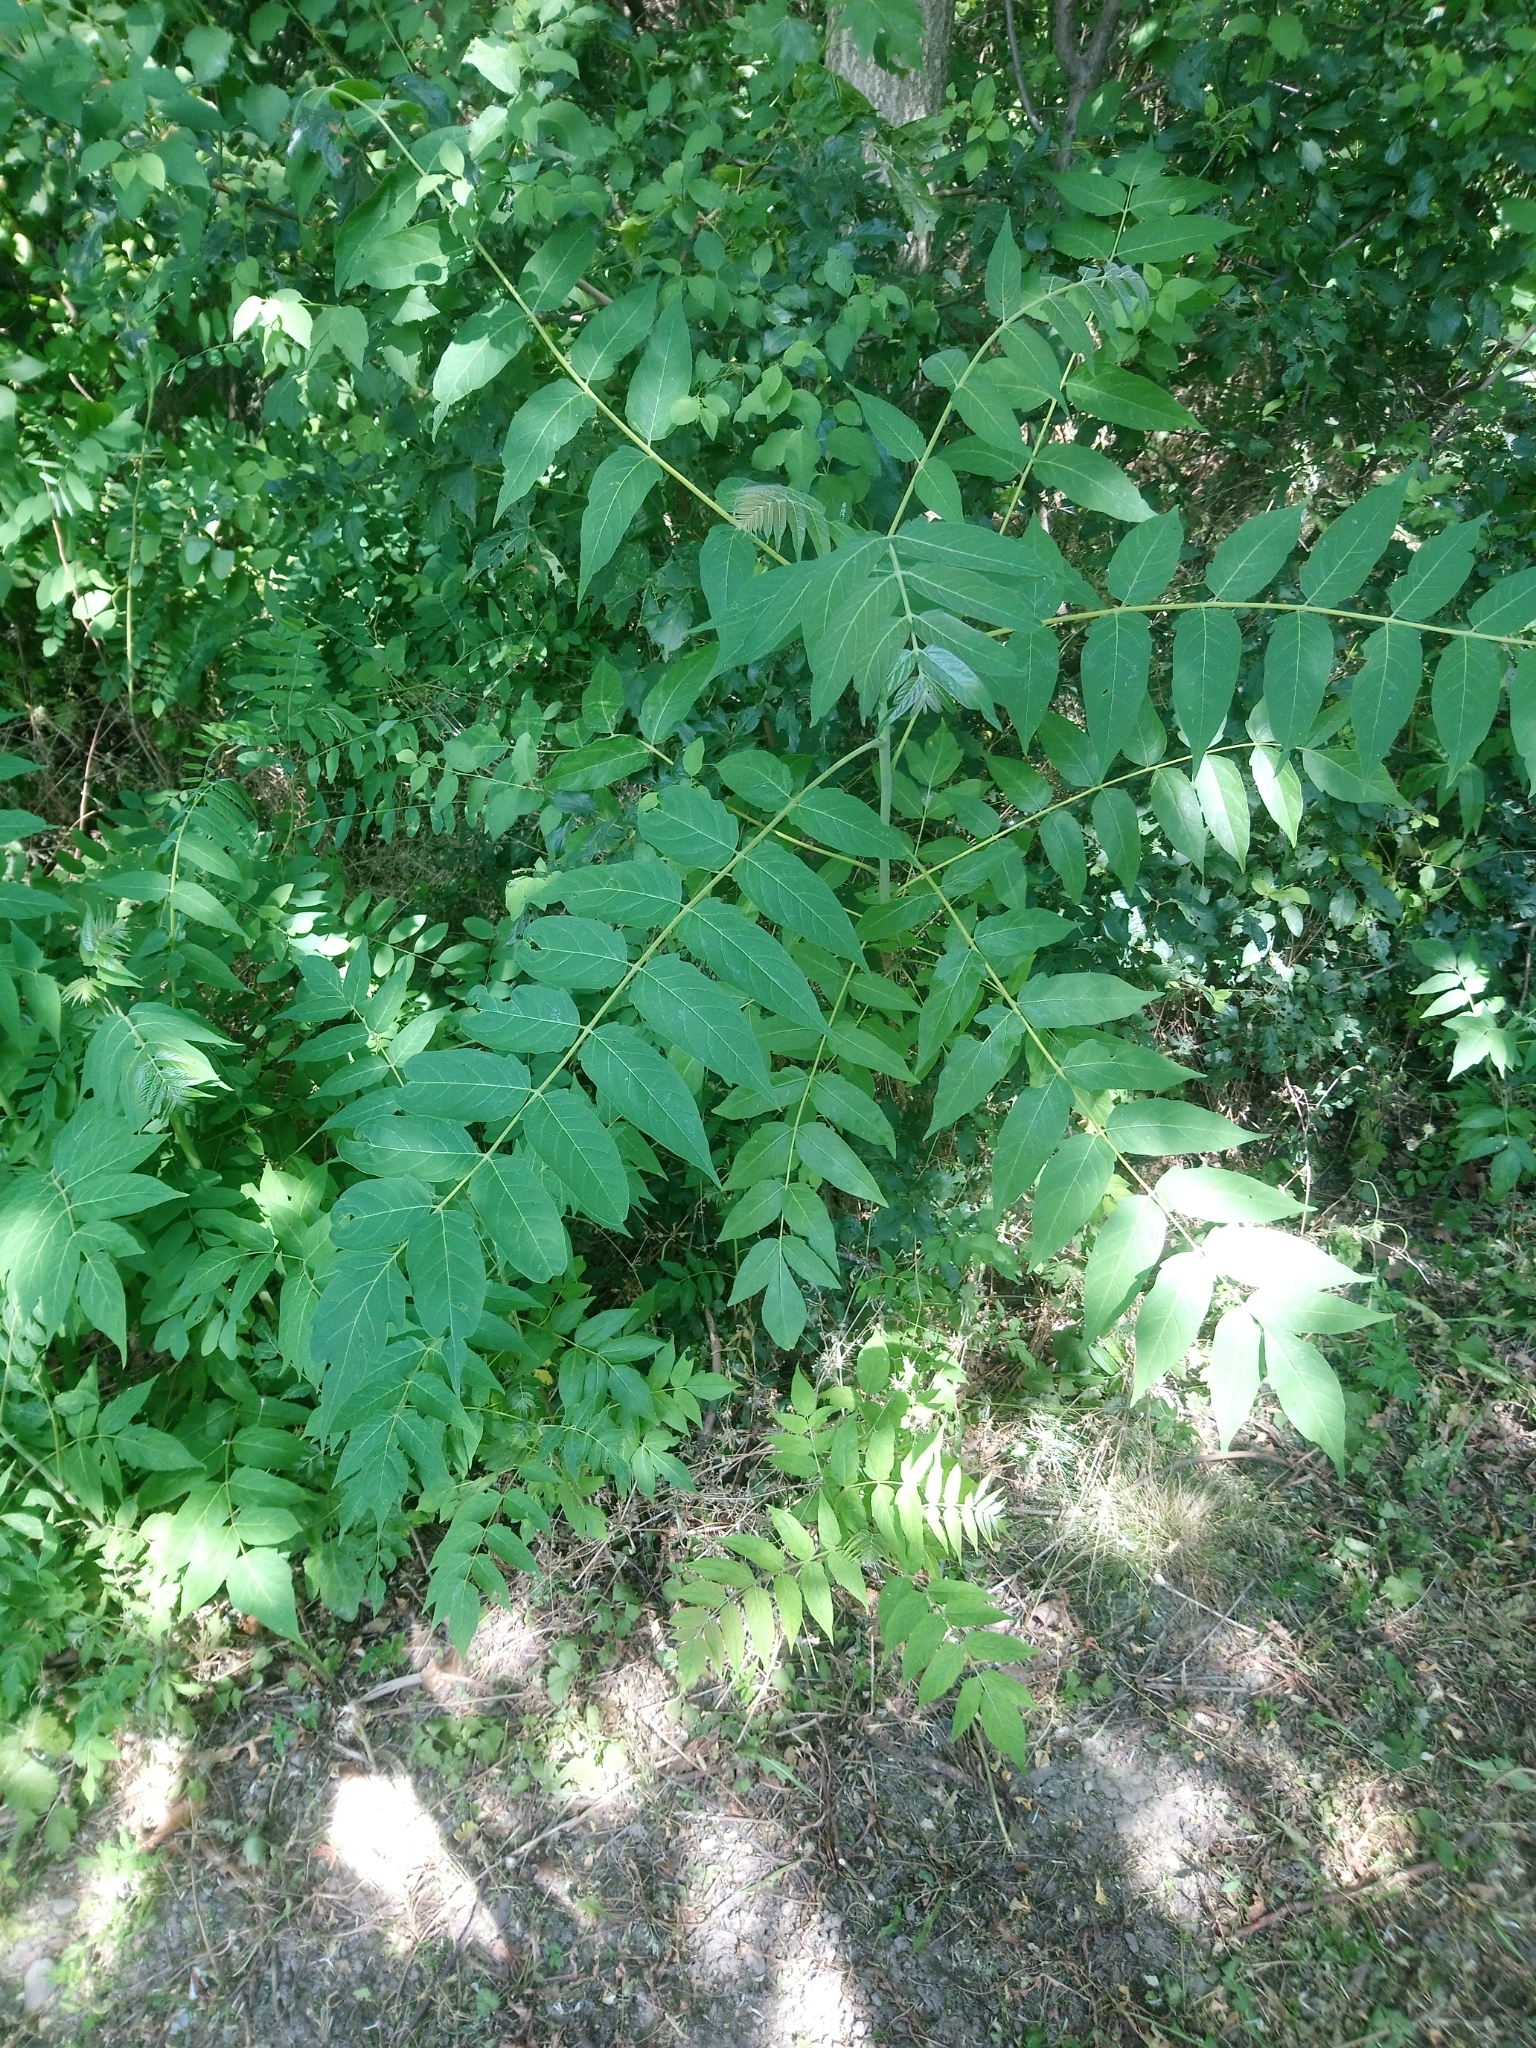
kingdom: Plantae
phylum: Tracheophyta
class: Magnoliopsida
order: Sapindales
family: Simaroubaceae
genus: Ailanthus
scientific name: Ailanthus altissima
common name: Tree-of-heaven
